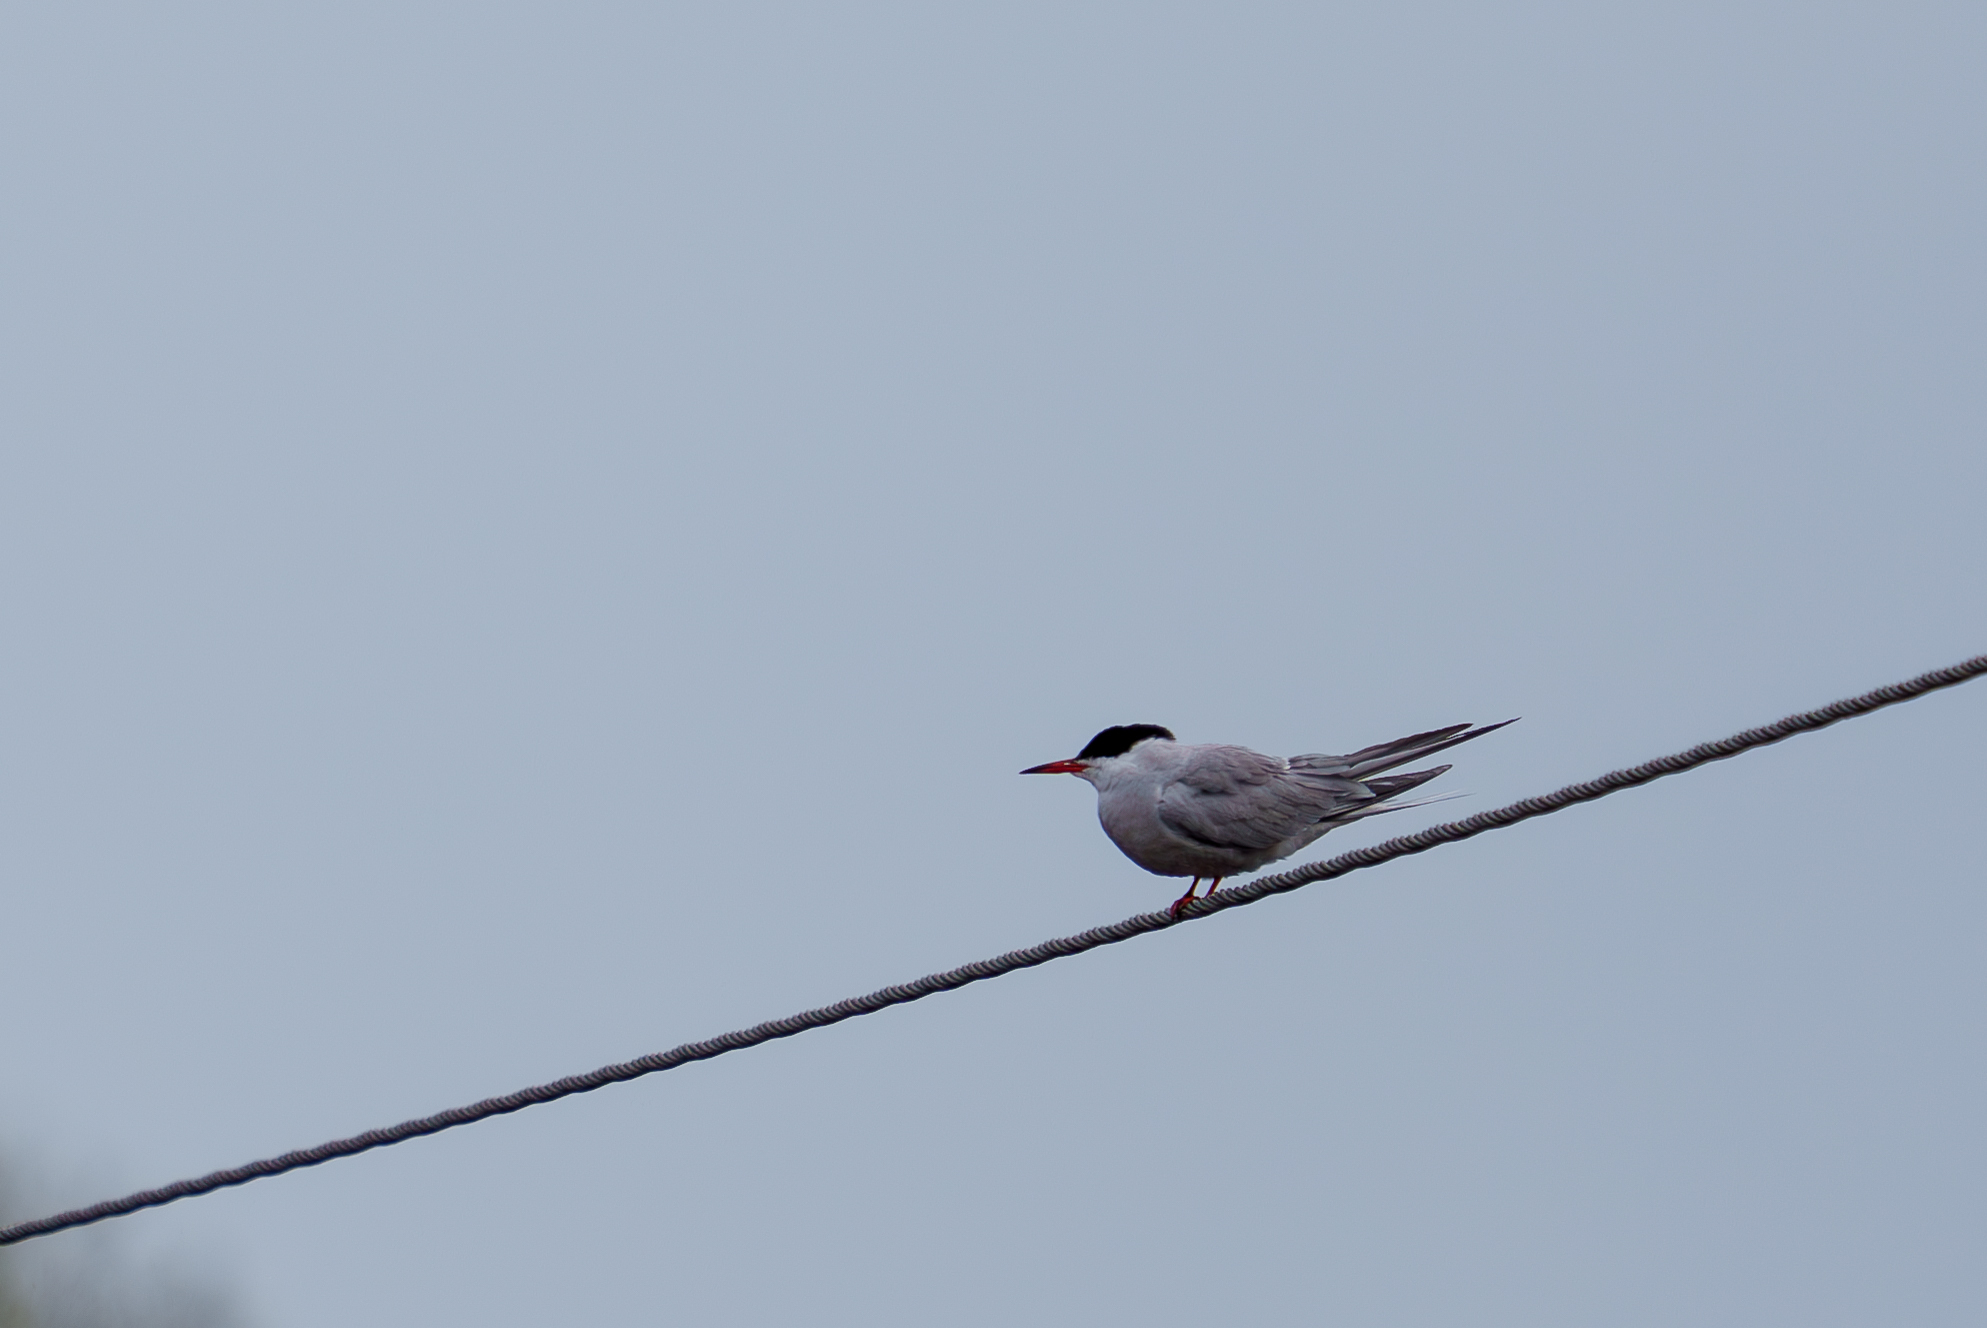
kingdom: Animalia
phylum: Chordata
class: Aves
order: Charadriiformes
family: Laridae
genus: Sterna
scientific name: Sterna hirundo
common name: Common tern
